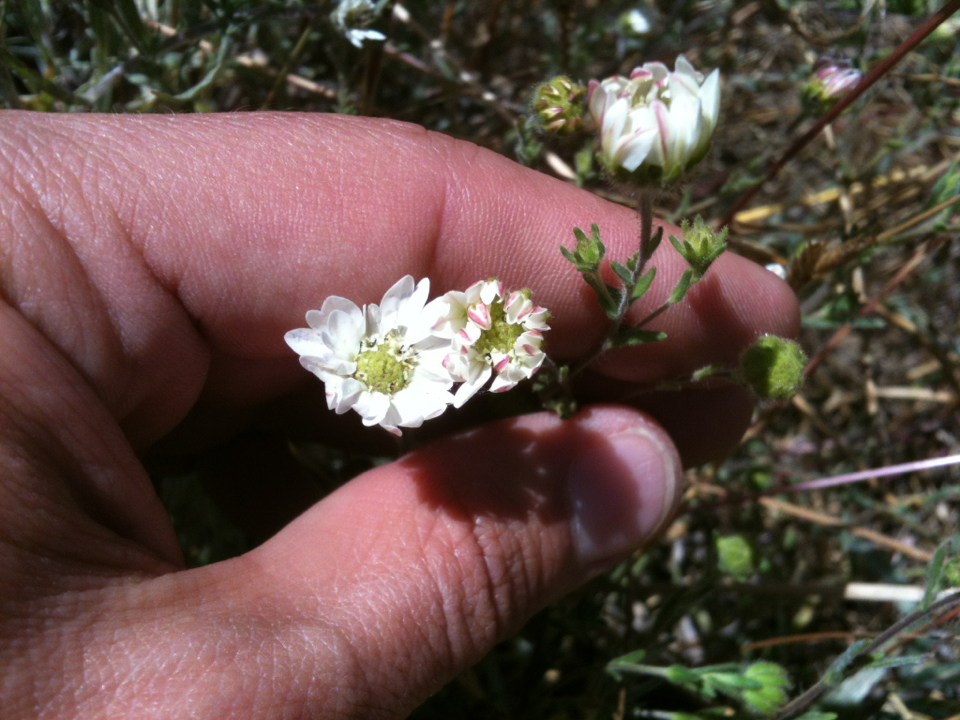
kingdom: Plantae
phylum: Tracheophyta
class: Magnoliopsida
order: Asterales
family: Asteraceae
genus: Hemizonia
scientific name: Hemizonia congesta
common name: Hayfield tarweed
